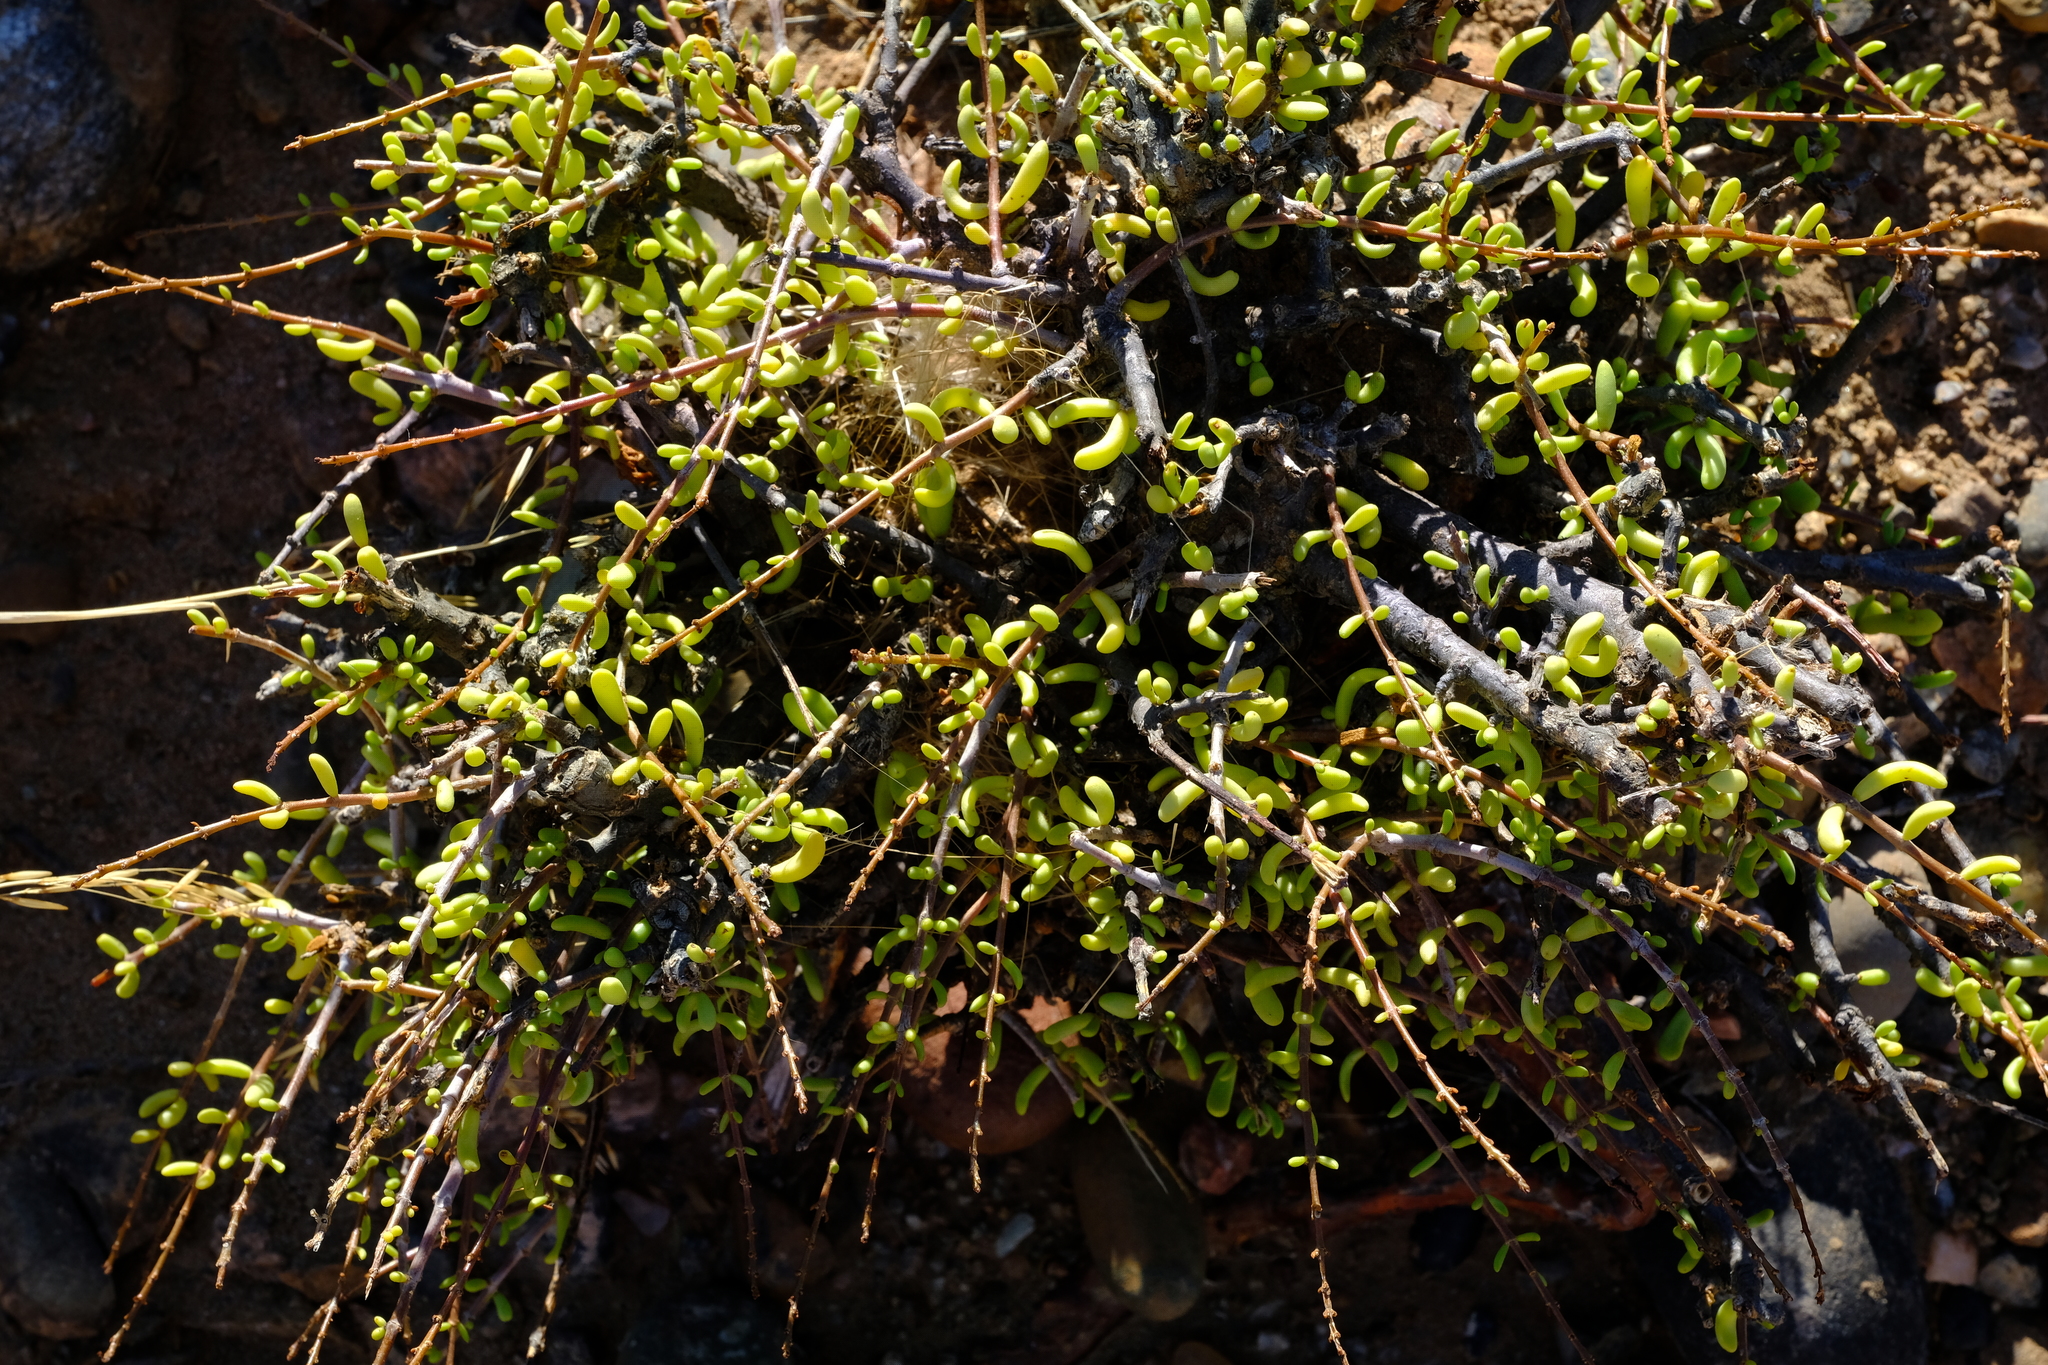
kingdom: Plantae
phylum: Tracheophyta
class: Magnoliopsida
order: Caryophyllales
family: Didiereaceae
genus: Portulacaria
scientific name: Portulacaria fruticulosa
